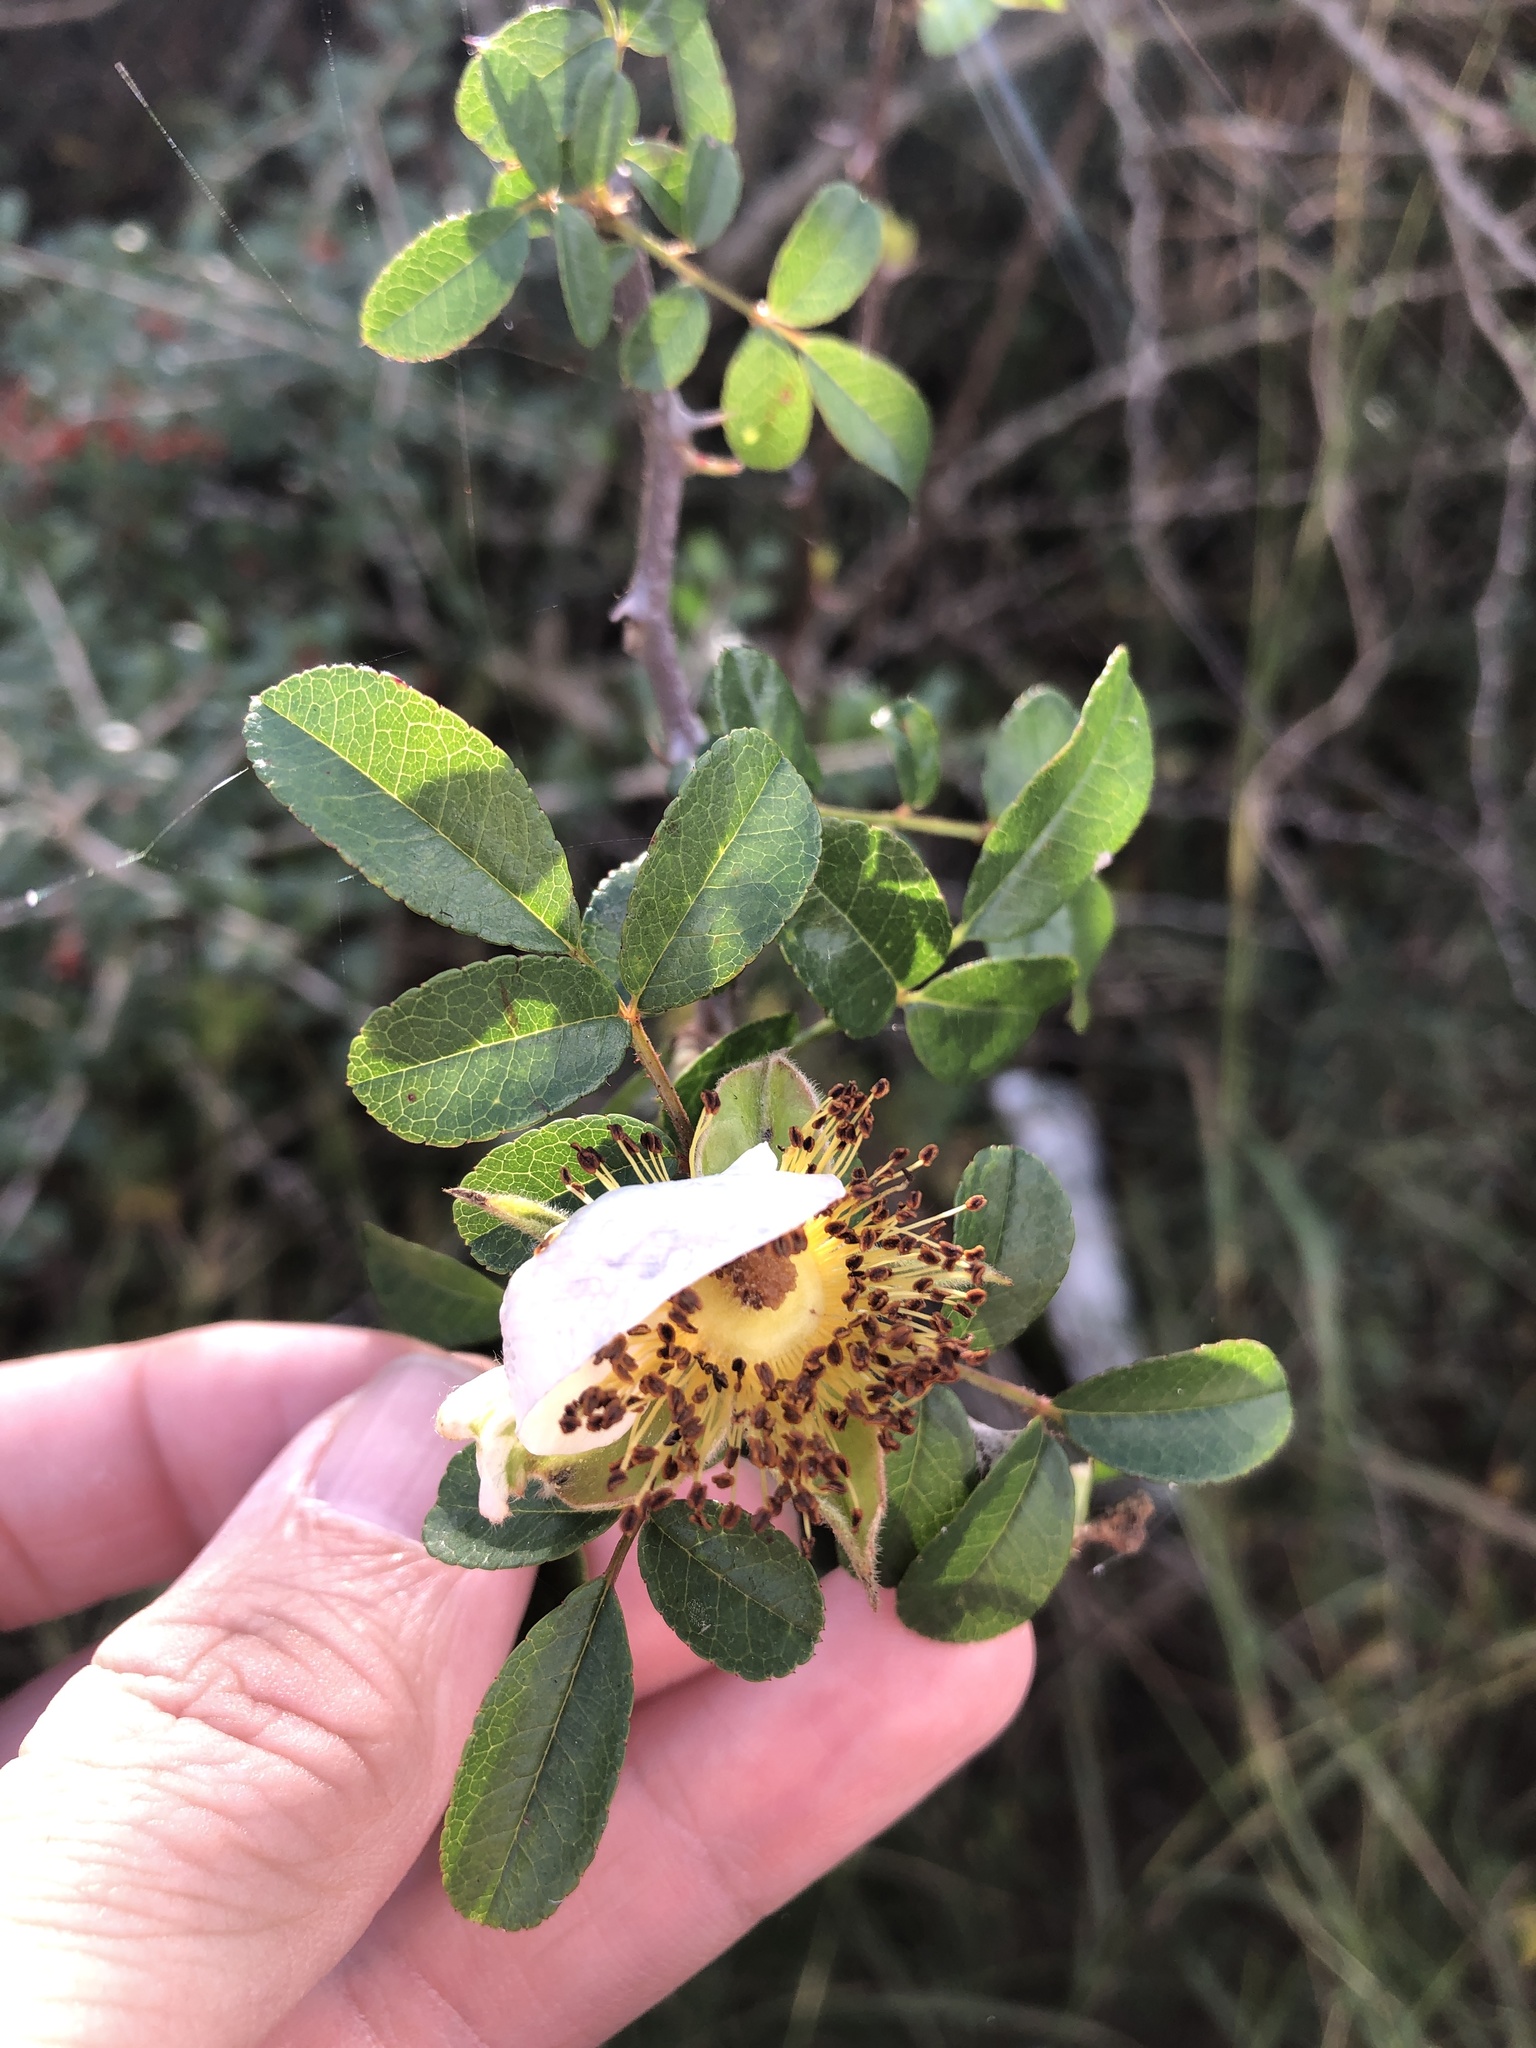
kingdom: Plantae
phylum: Tracheophyta
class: Magnoliopsida
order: Rosales
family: Rosaceae
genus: Rosa
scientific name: Rosa bracteata
